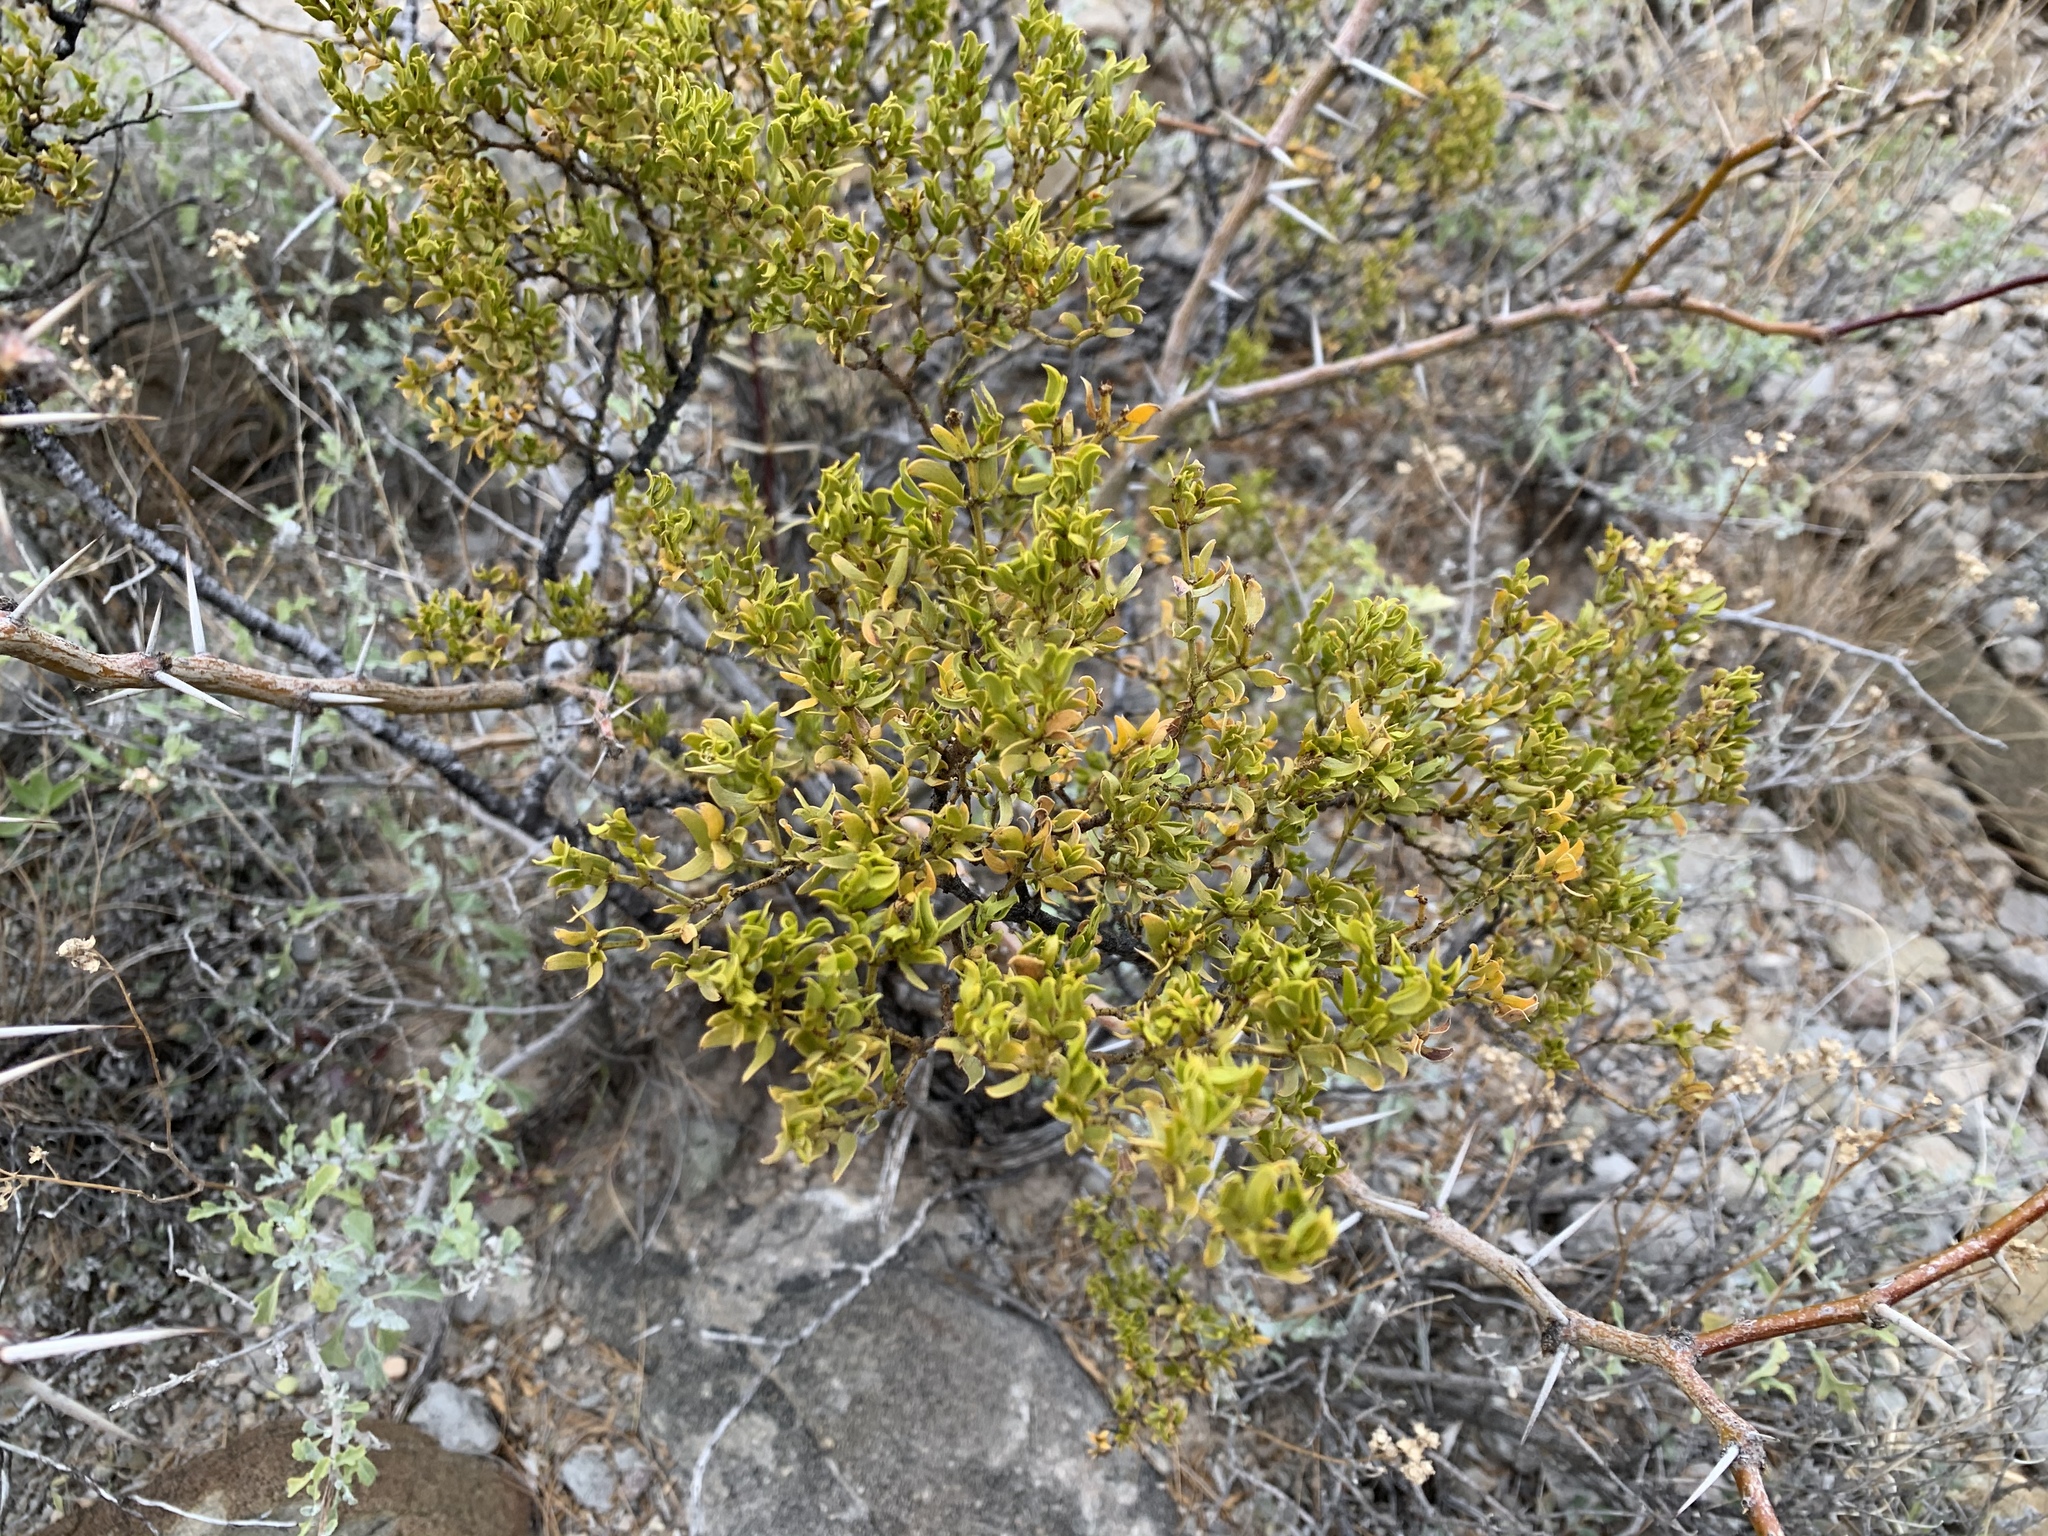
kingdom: Plantae
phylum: Tracheophyta
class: Magnoliopsida
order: Zygophyllales
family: Zygophyllaceae
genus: Larrea
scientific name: Larrea tridentata
